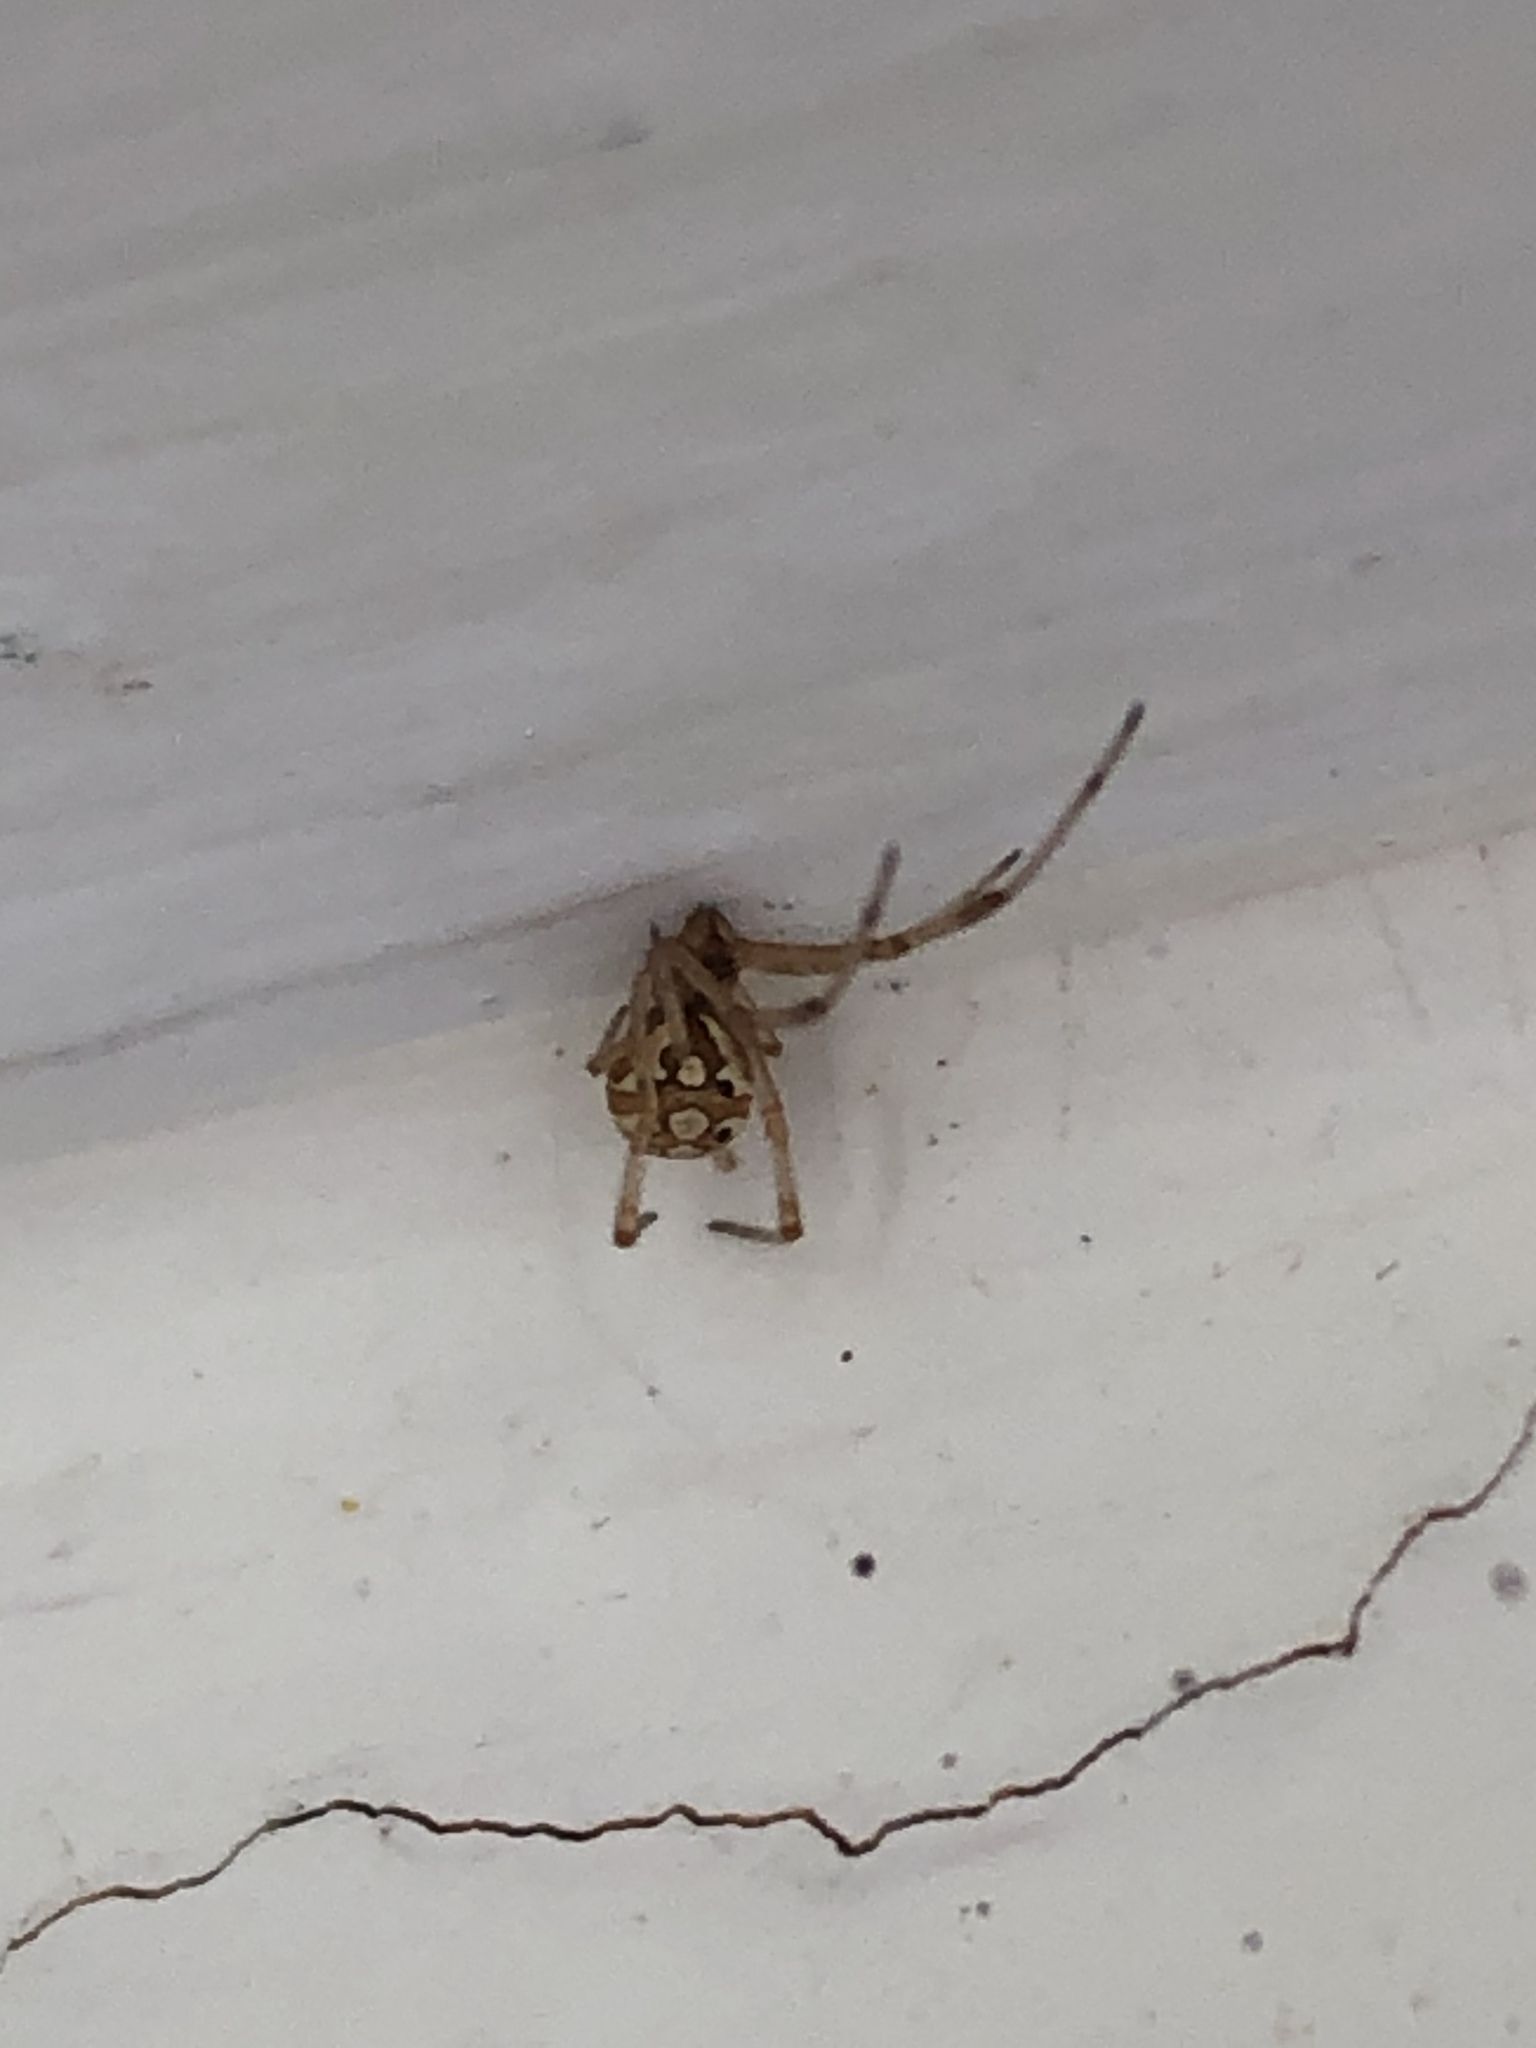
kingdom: Animalia
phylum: Arthropoda
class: Arachnida
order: Araneae
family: Theridiidae
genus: Latrodectus
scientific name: Latrodectus geometricus
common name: Brown widow spider
